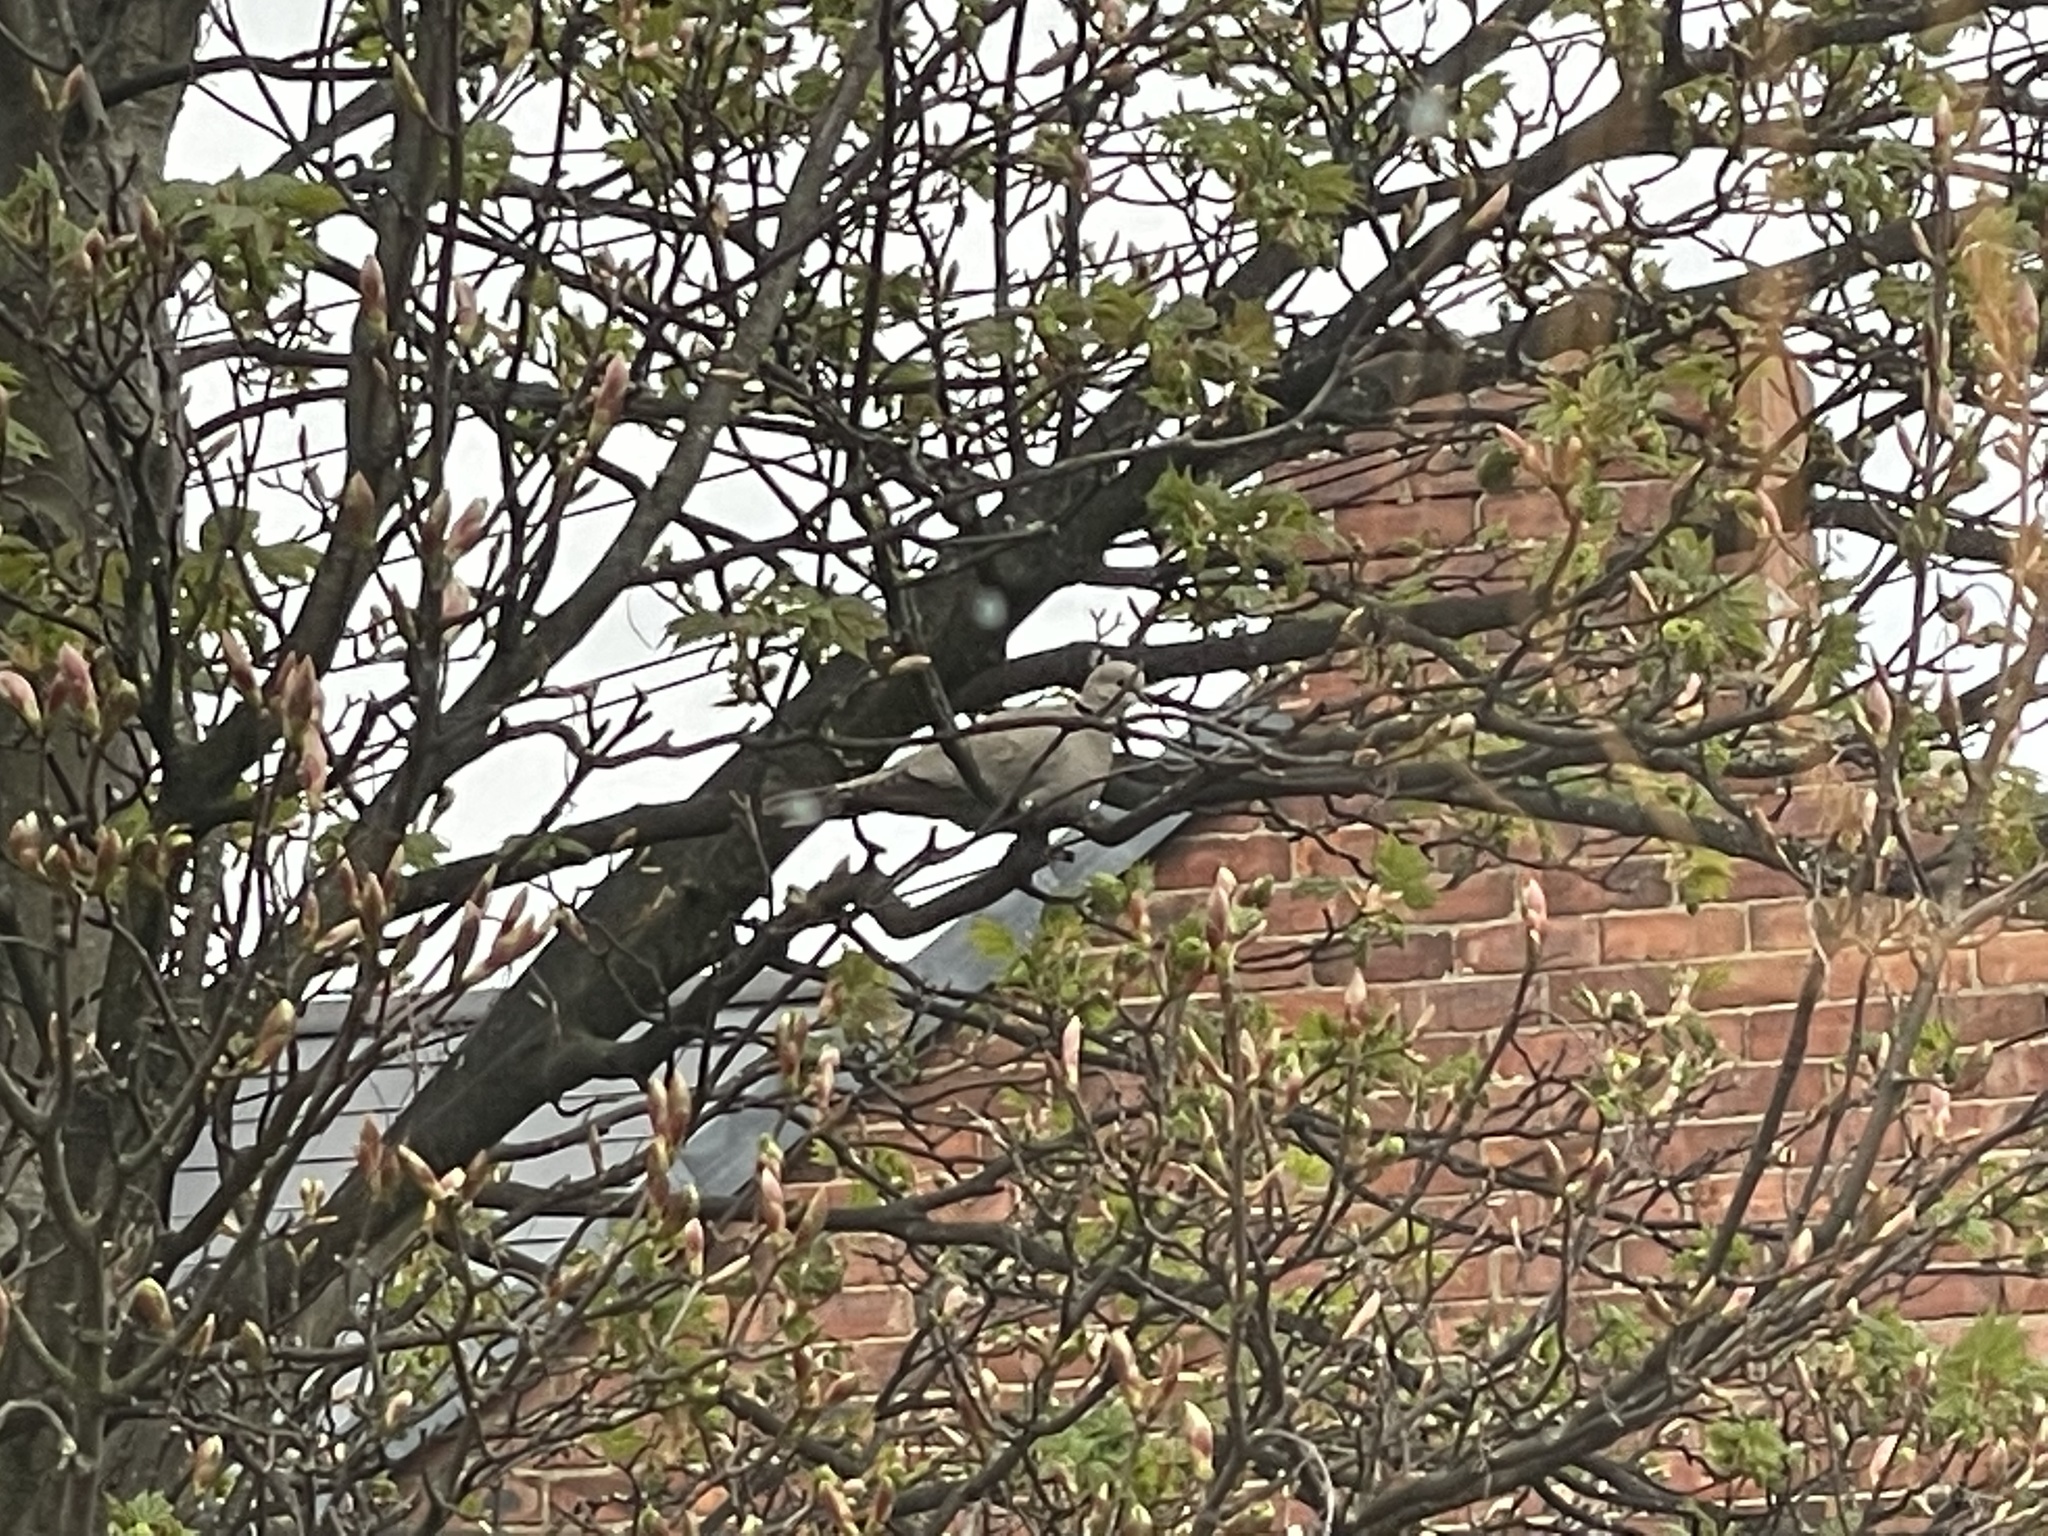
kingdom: Animalia
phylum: Chordata
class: Aves
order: Columbiformes
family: Columbidae
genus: Streptopelia
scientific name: Streptopelia decaocto
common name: Eurasian collared dove
